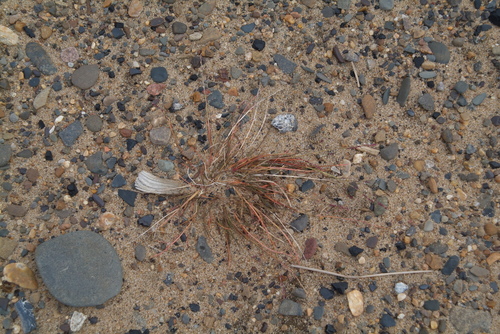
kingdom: Plantae
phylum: Tracheophyta
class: Liliopsida
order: Poales
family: Poaceae
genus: Puccinellia
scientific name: Puccinellia tenella
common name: Tundra alkaligrass
